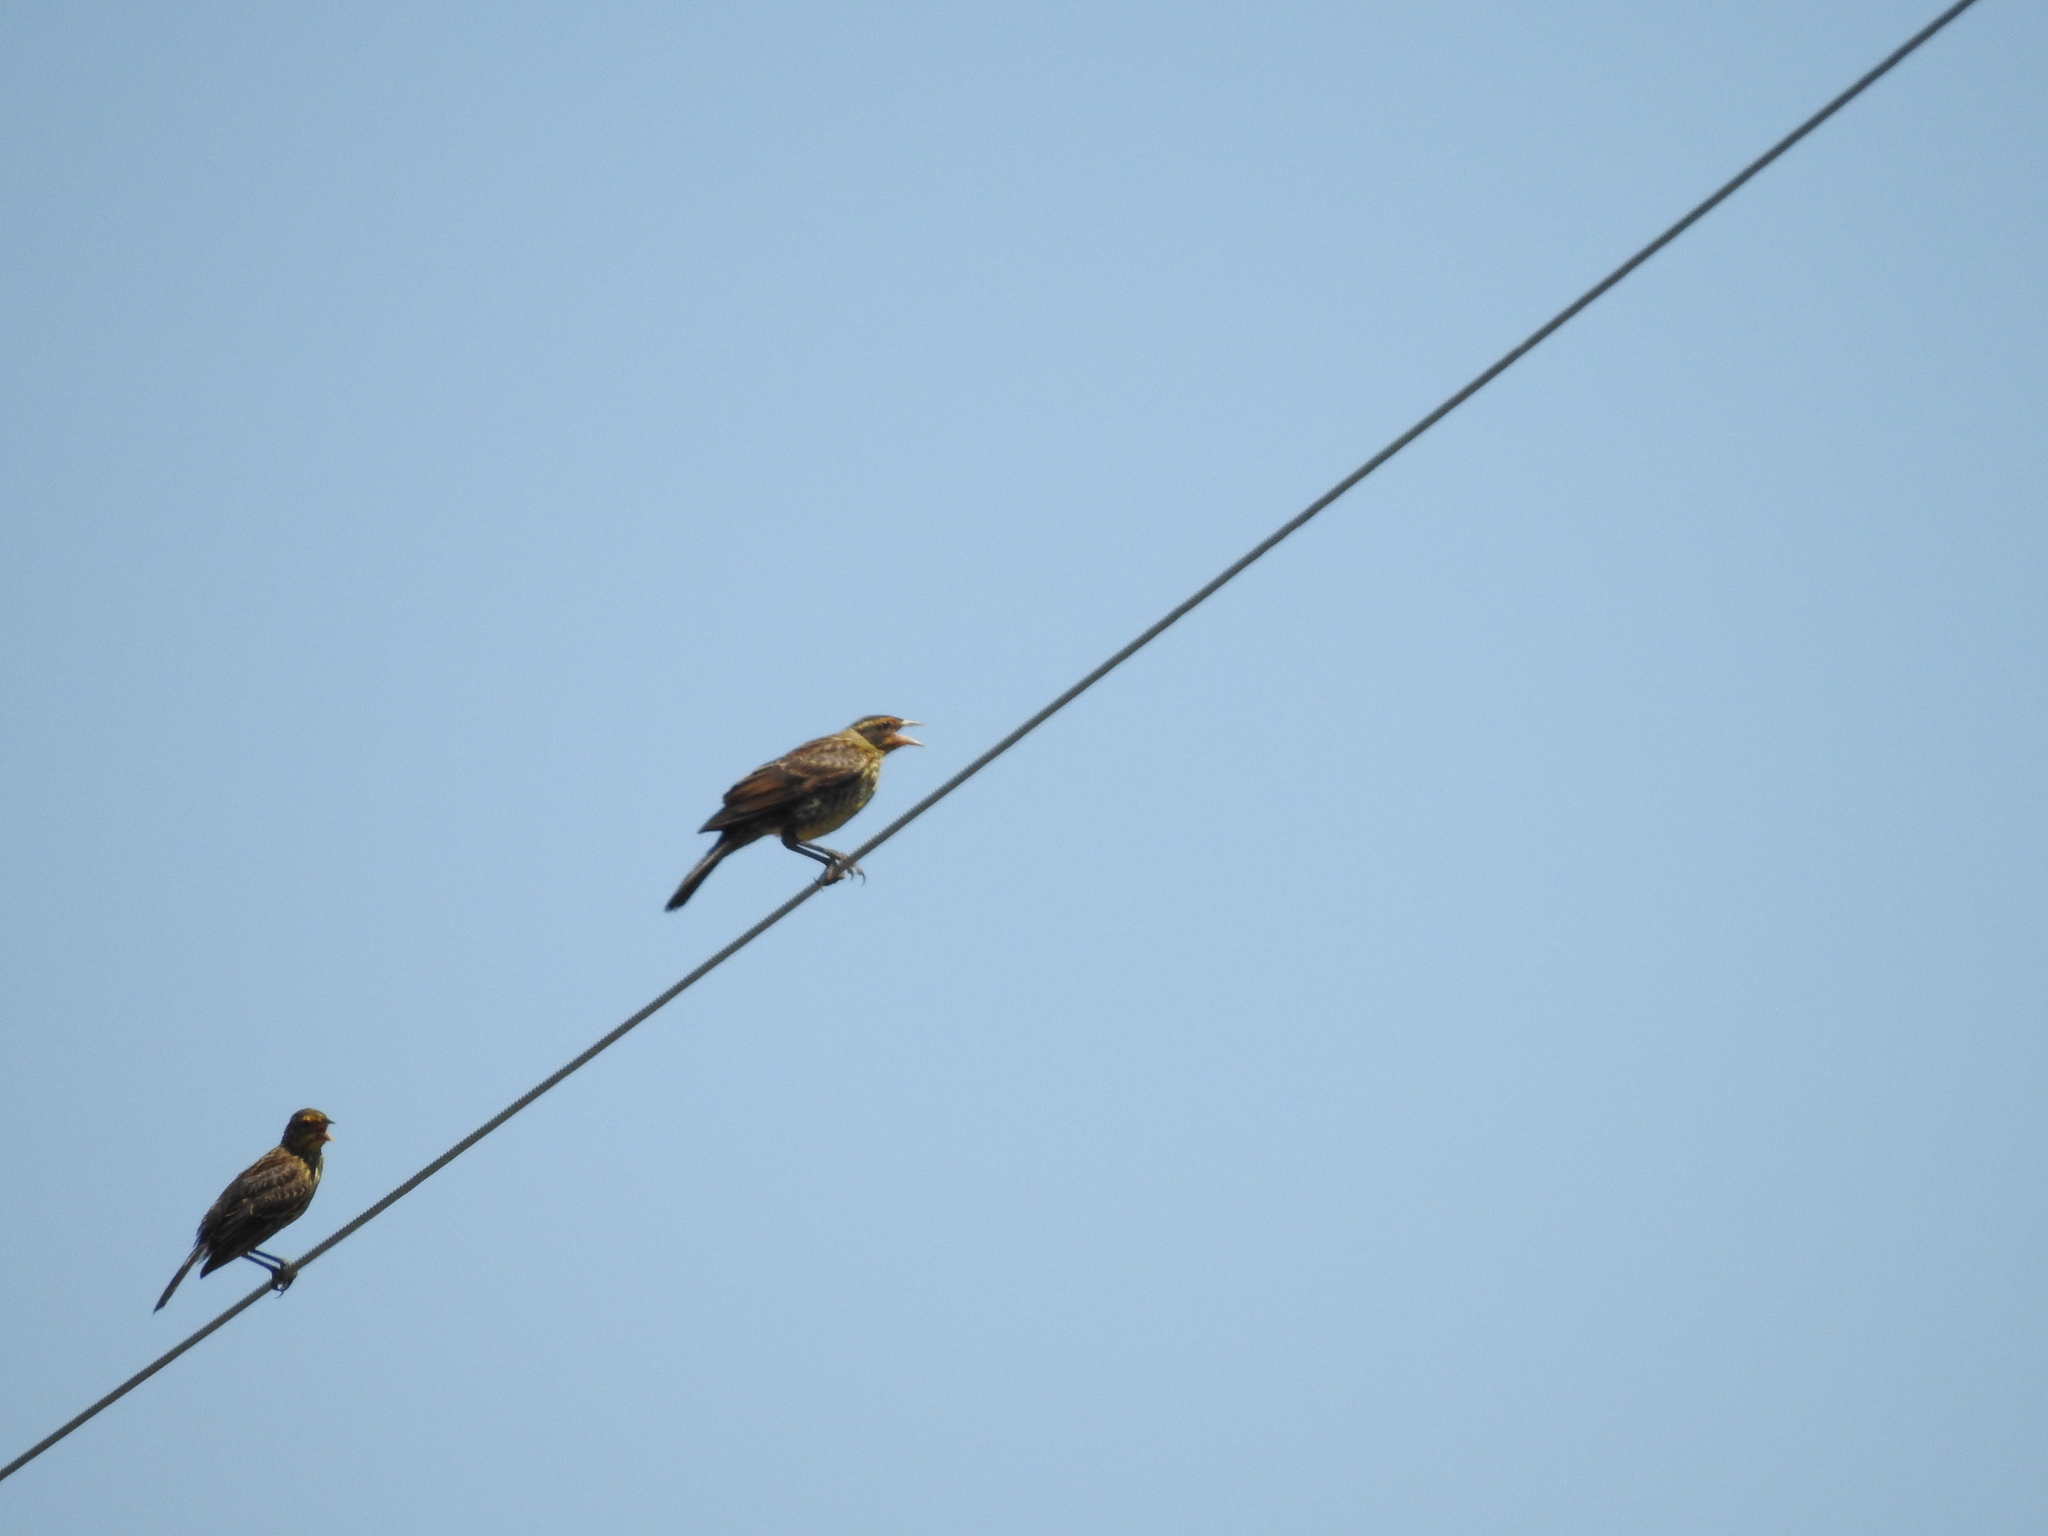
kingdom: Animalia
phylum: Chordata
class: Aves
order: Passeriformes
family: Icteridae
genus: Agelaius
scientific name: Agelaius phoeniceus
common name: Red-winged blackbird
